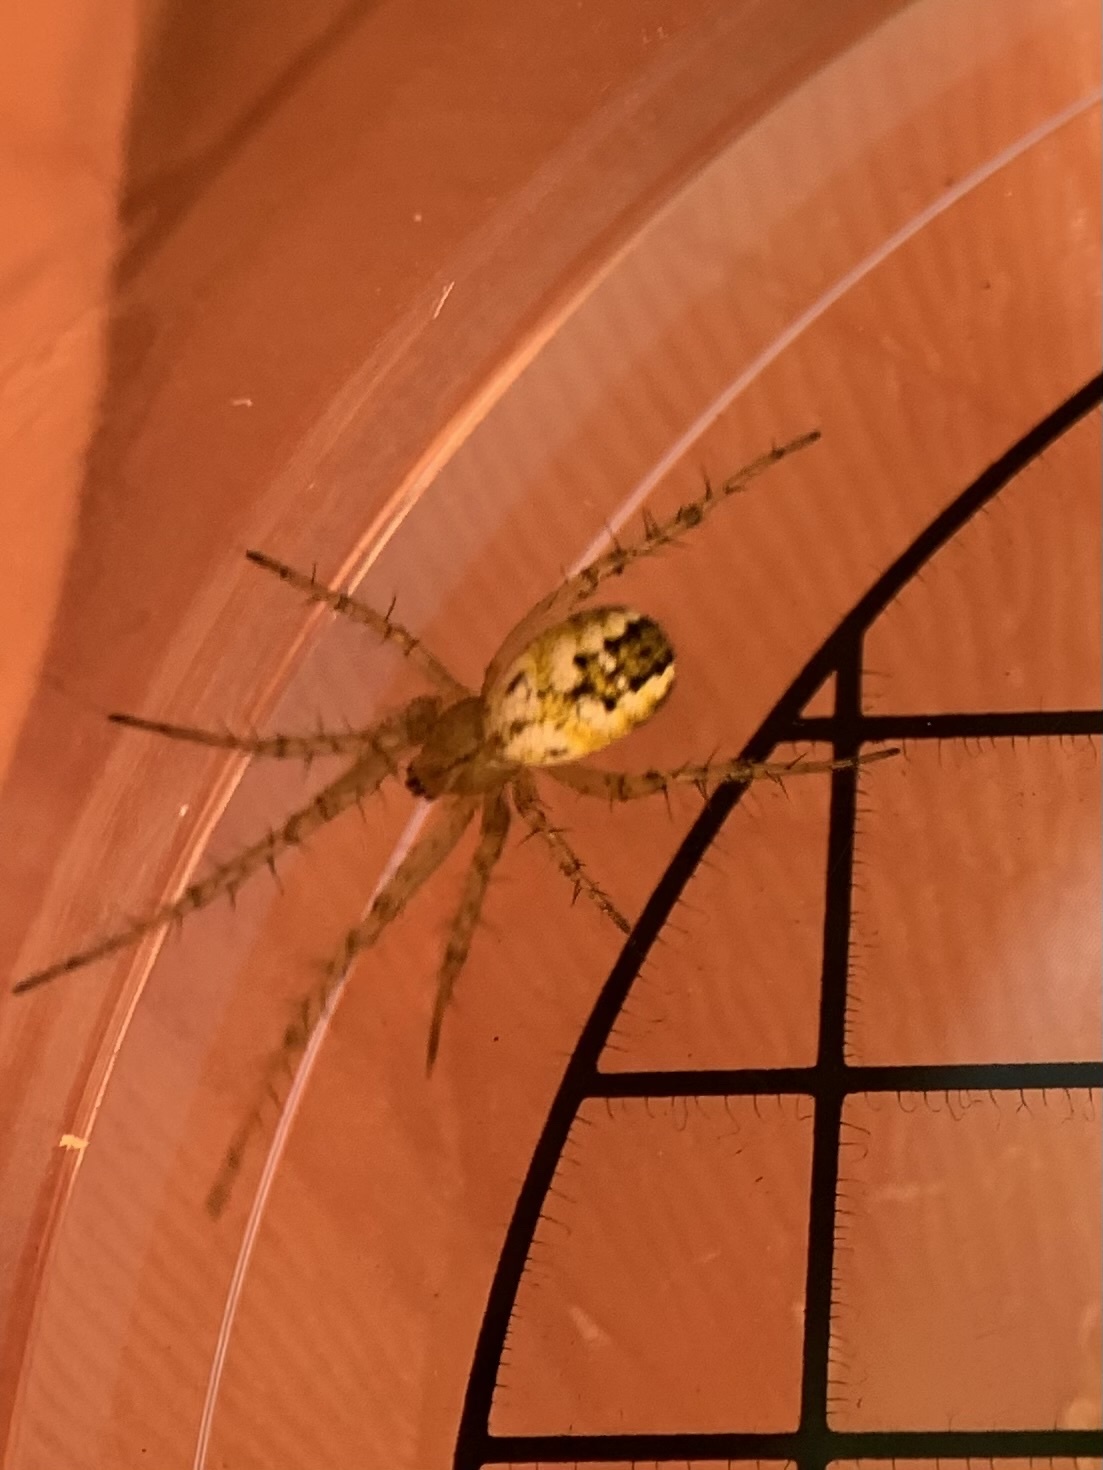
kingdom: Animalia
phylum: Arthropoda
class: Arachnida
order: Araneae
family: Araneidae
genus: Mangora
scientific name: Mangora acalypha
